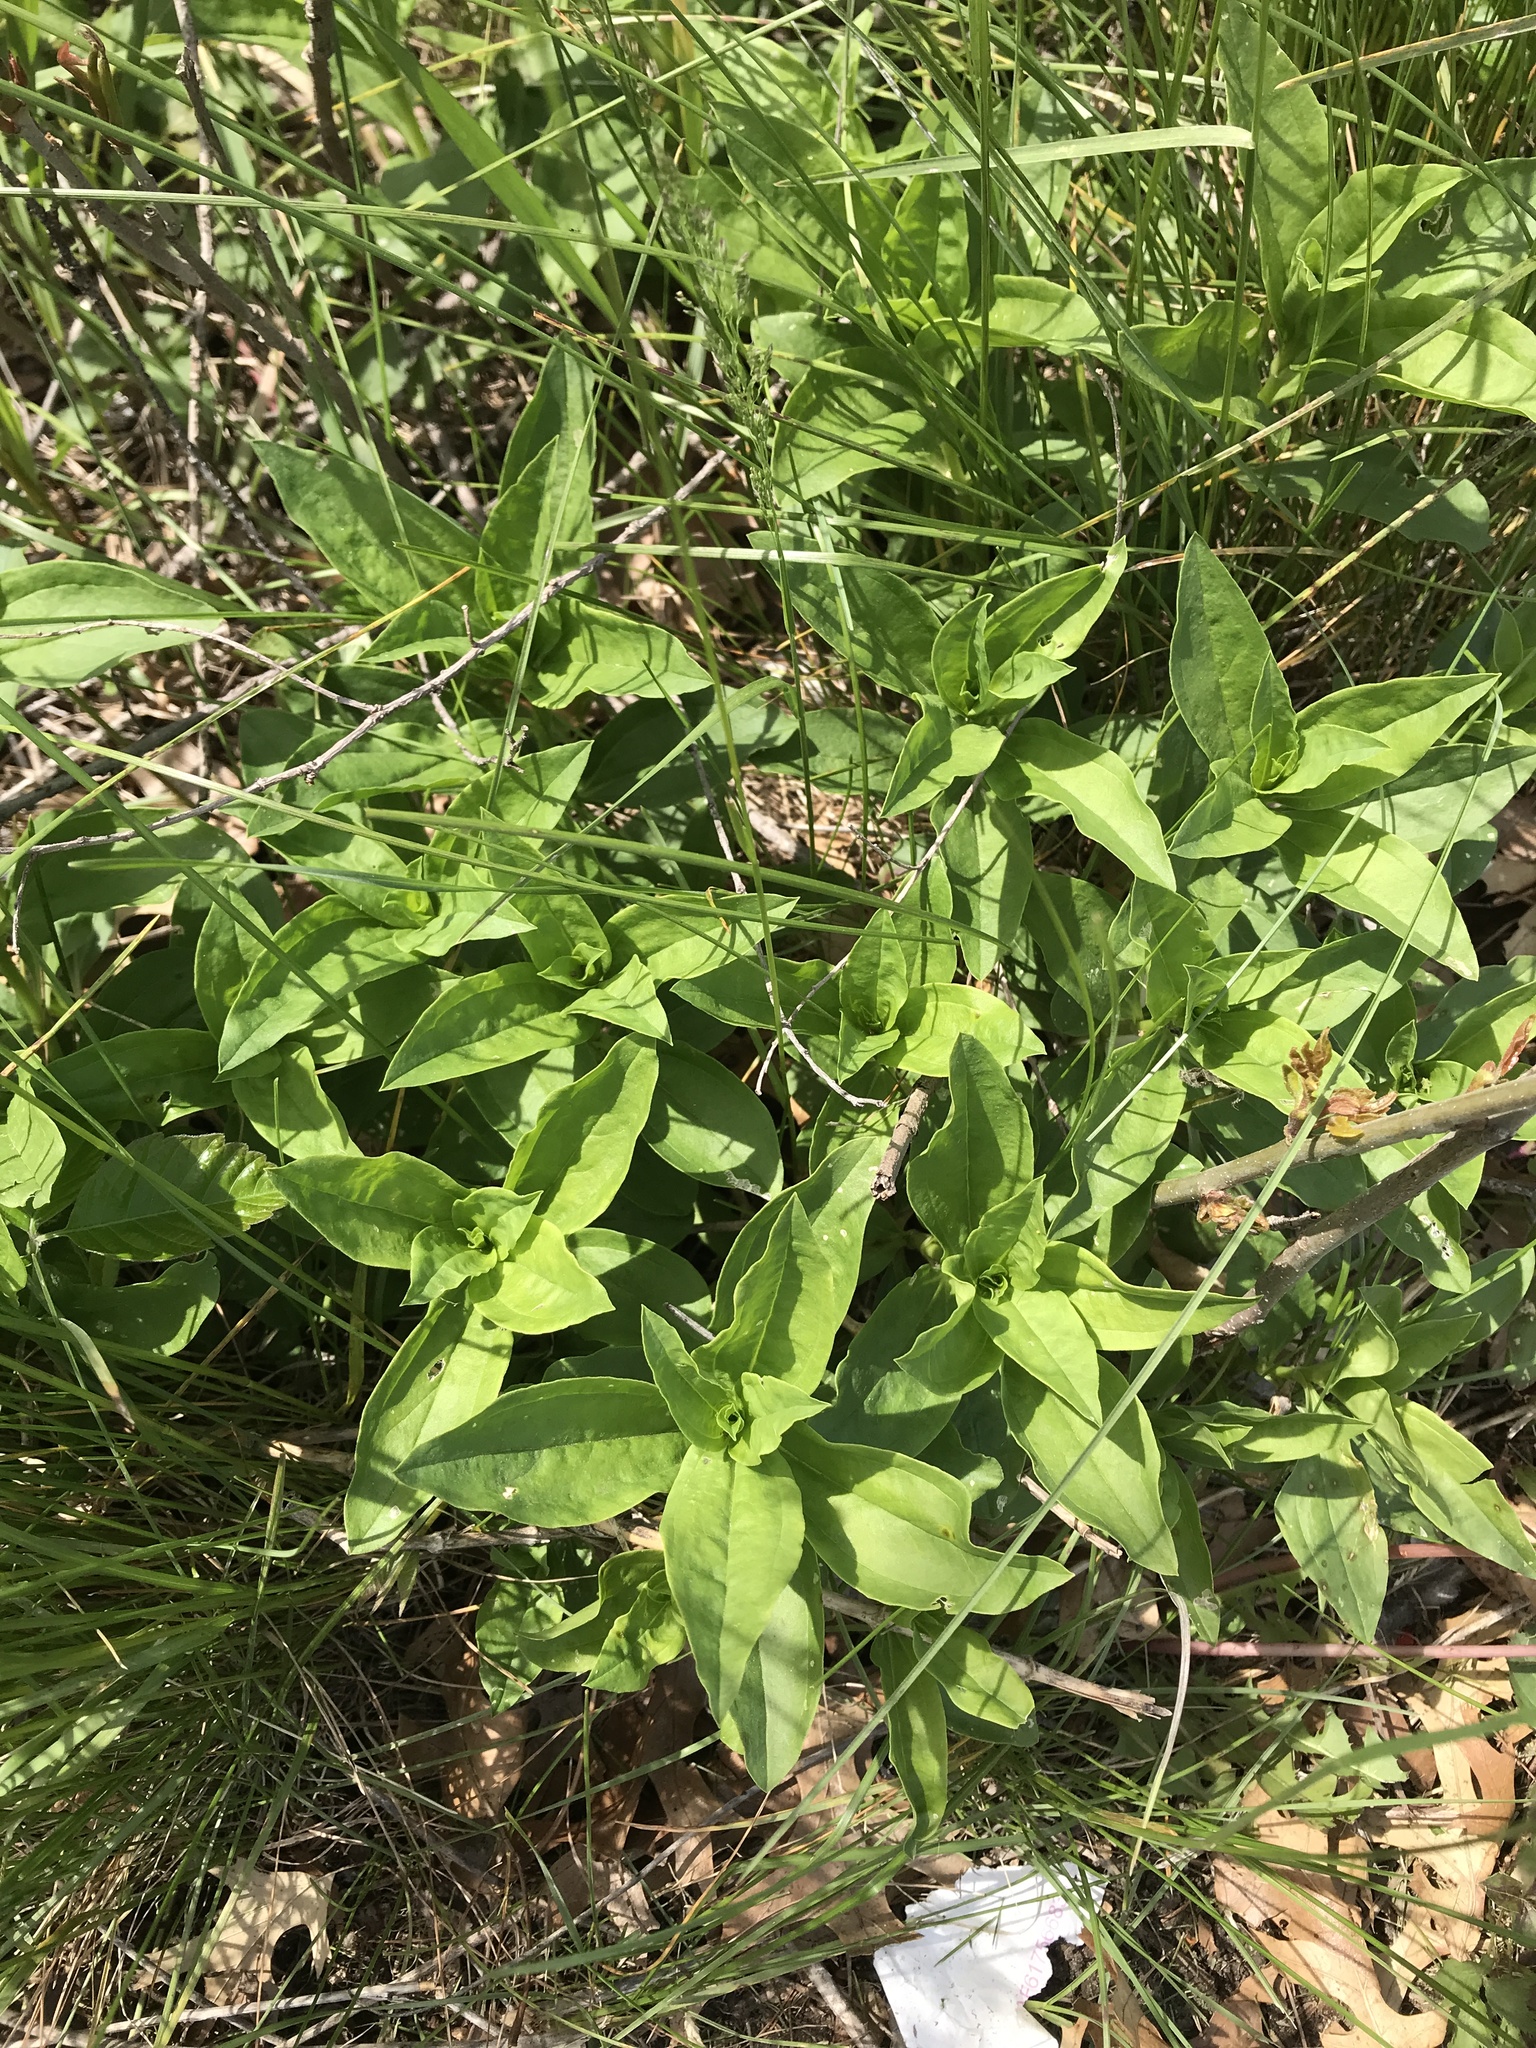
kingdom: Plantae
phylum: Tracheophyta
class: Magnoliopsida
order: Caryophyllales
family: Caryophyllaceae
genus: Saponaria
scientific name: Saponaria officinalis
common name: Soapwort
